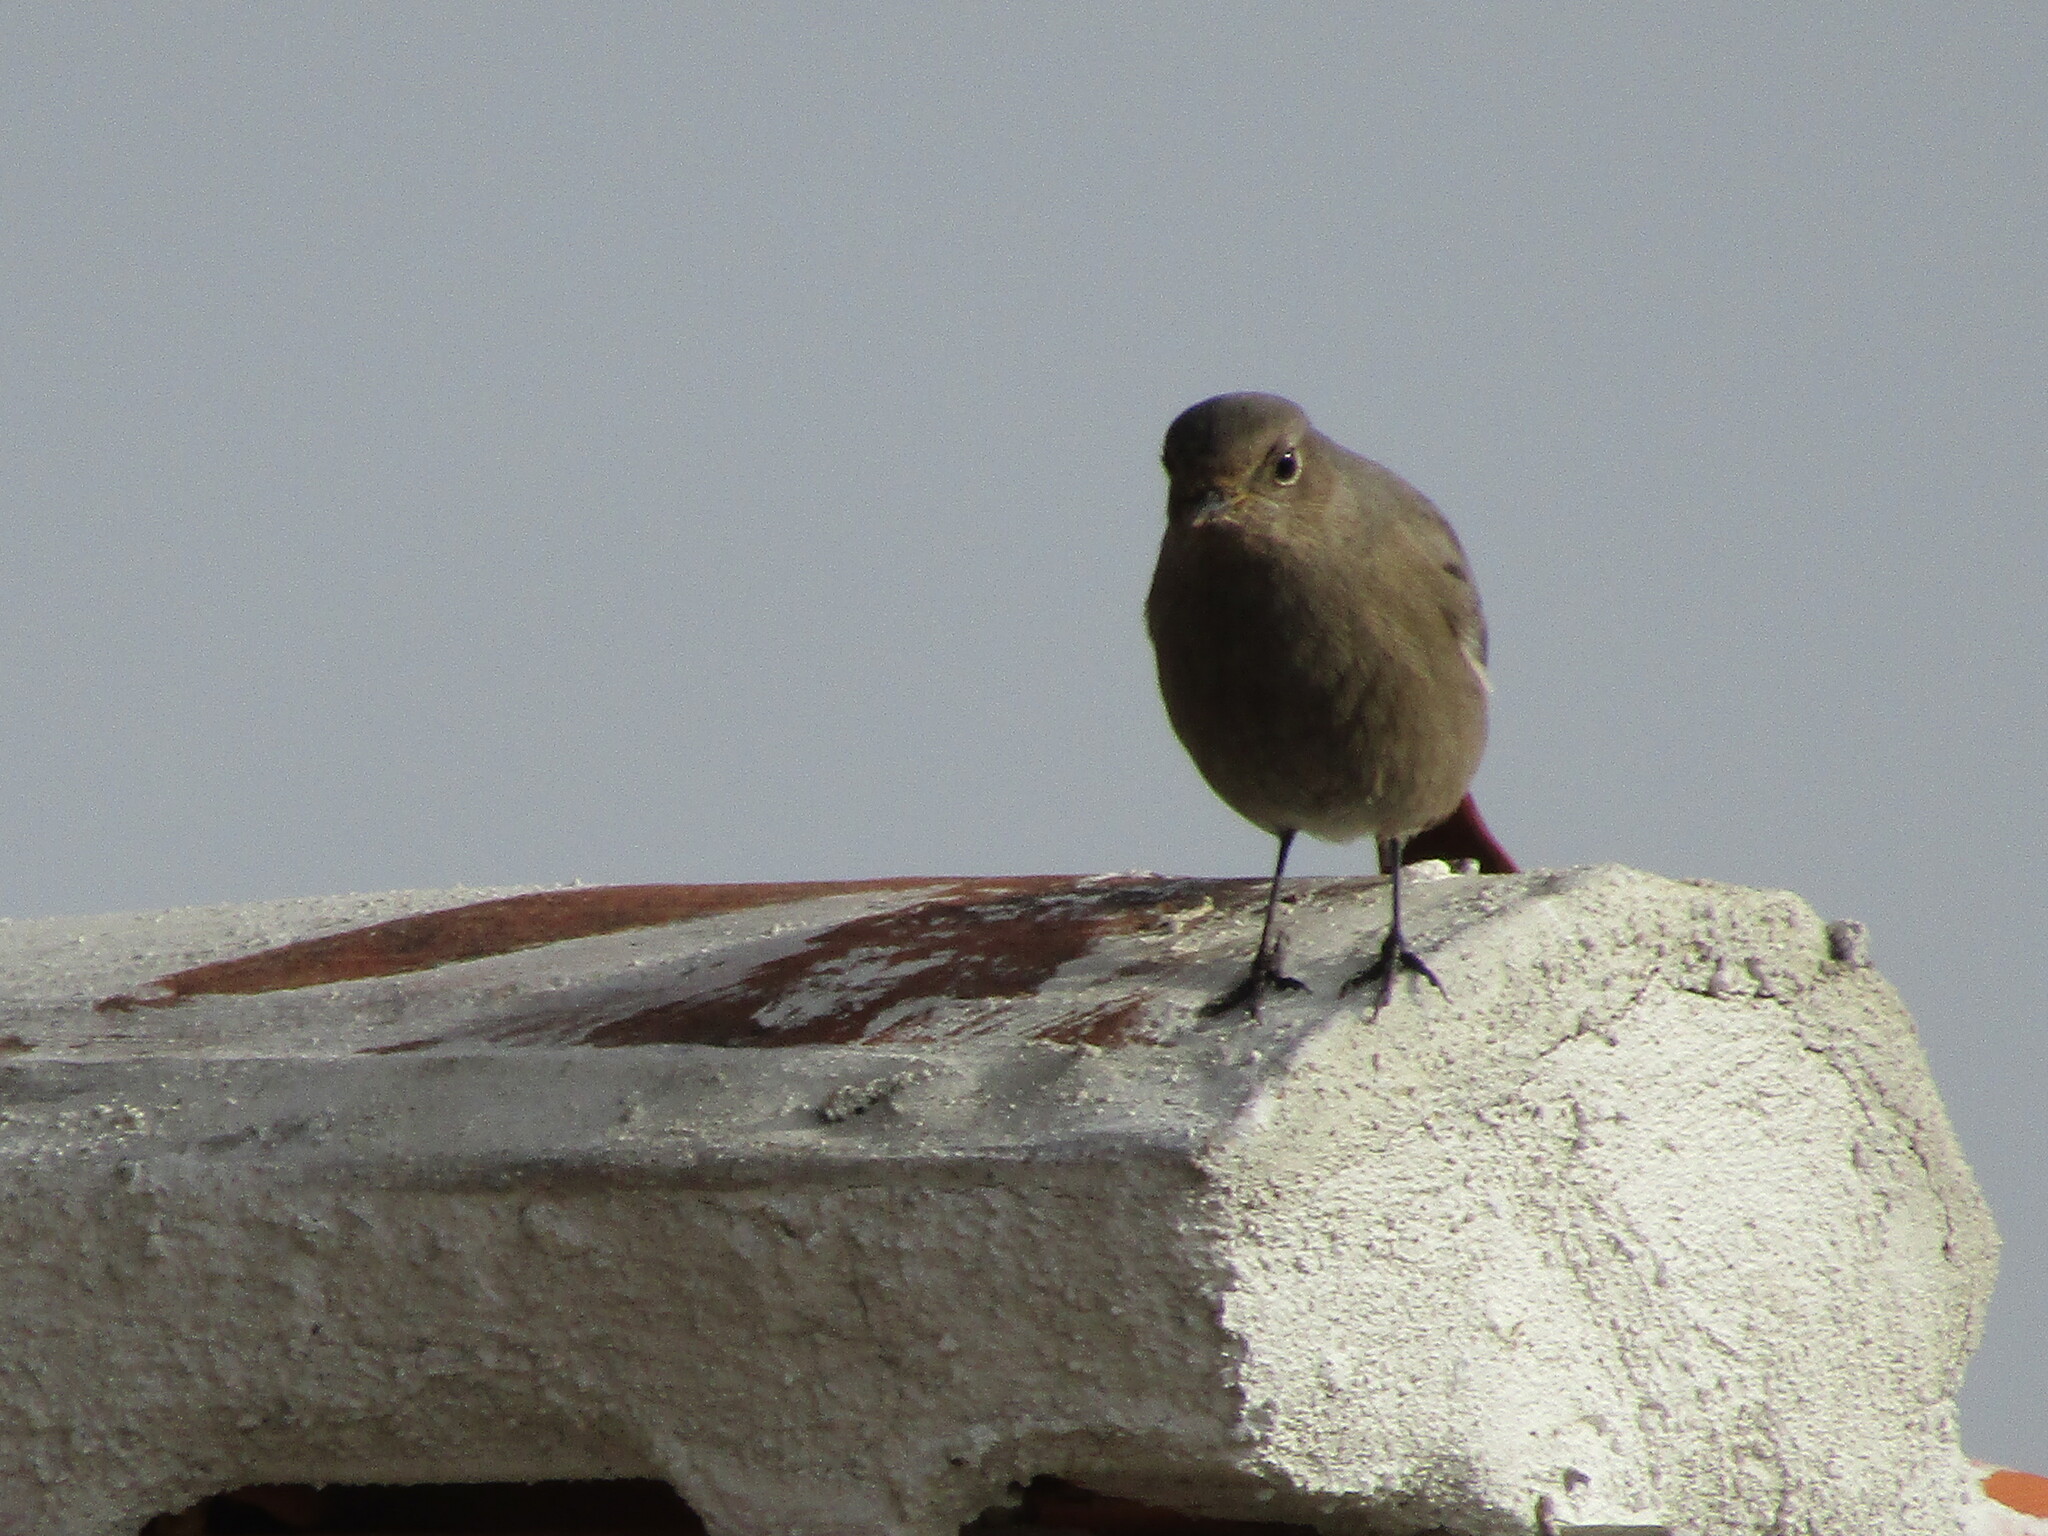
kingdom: Animalia
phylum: Chordata
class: Aves
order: Passeriformes
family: Muscicapidae
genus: Phoenicurus
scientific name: Phoenicurus ochruros
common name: Black redstart
